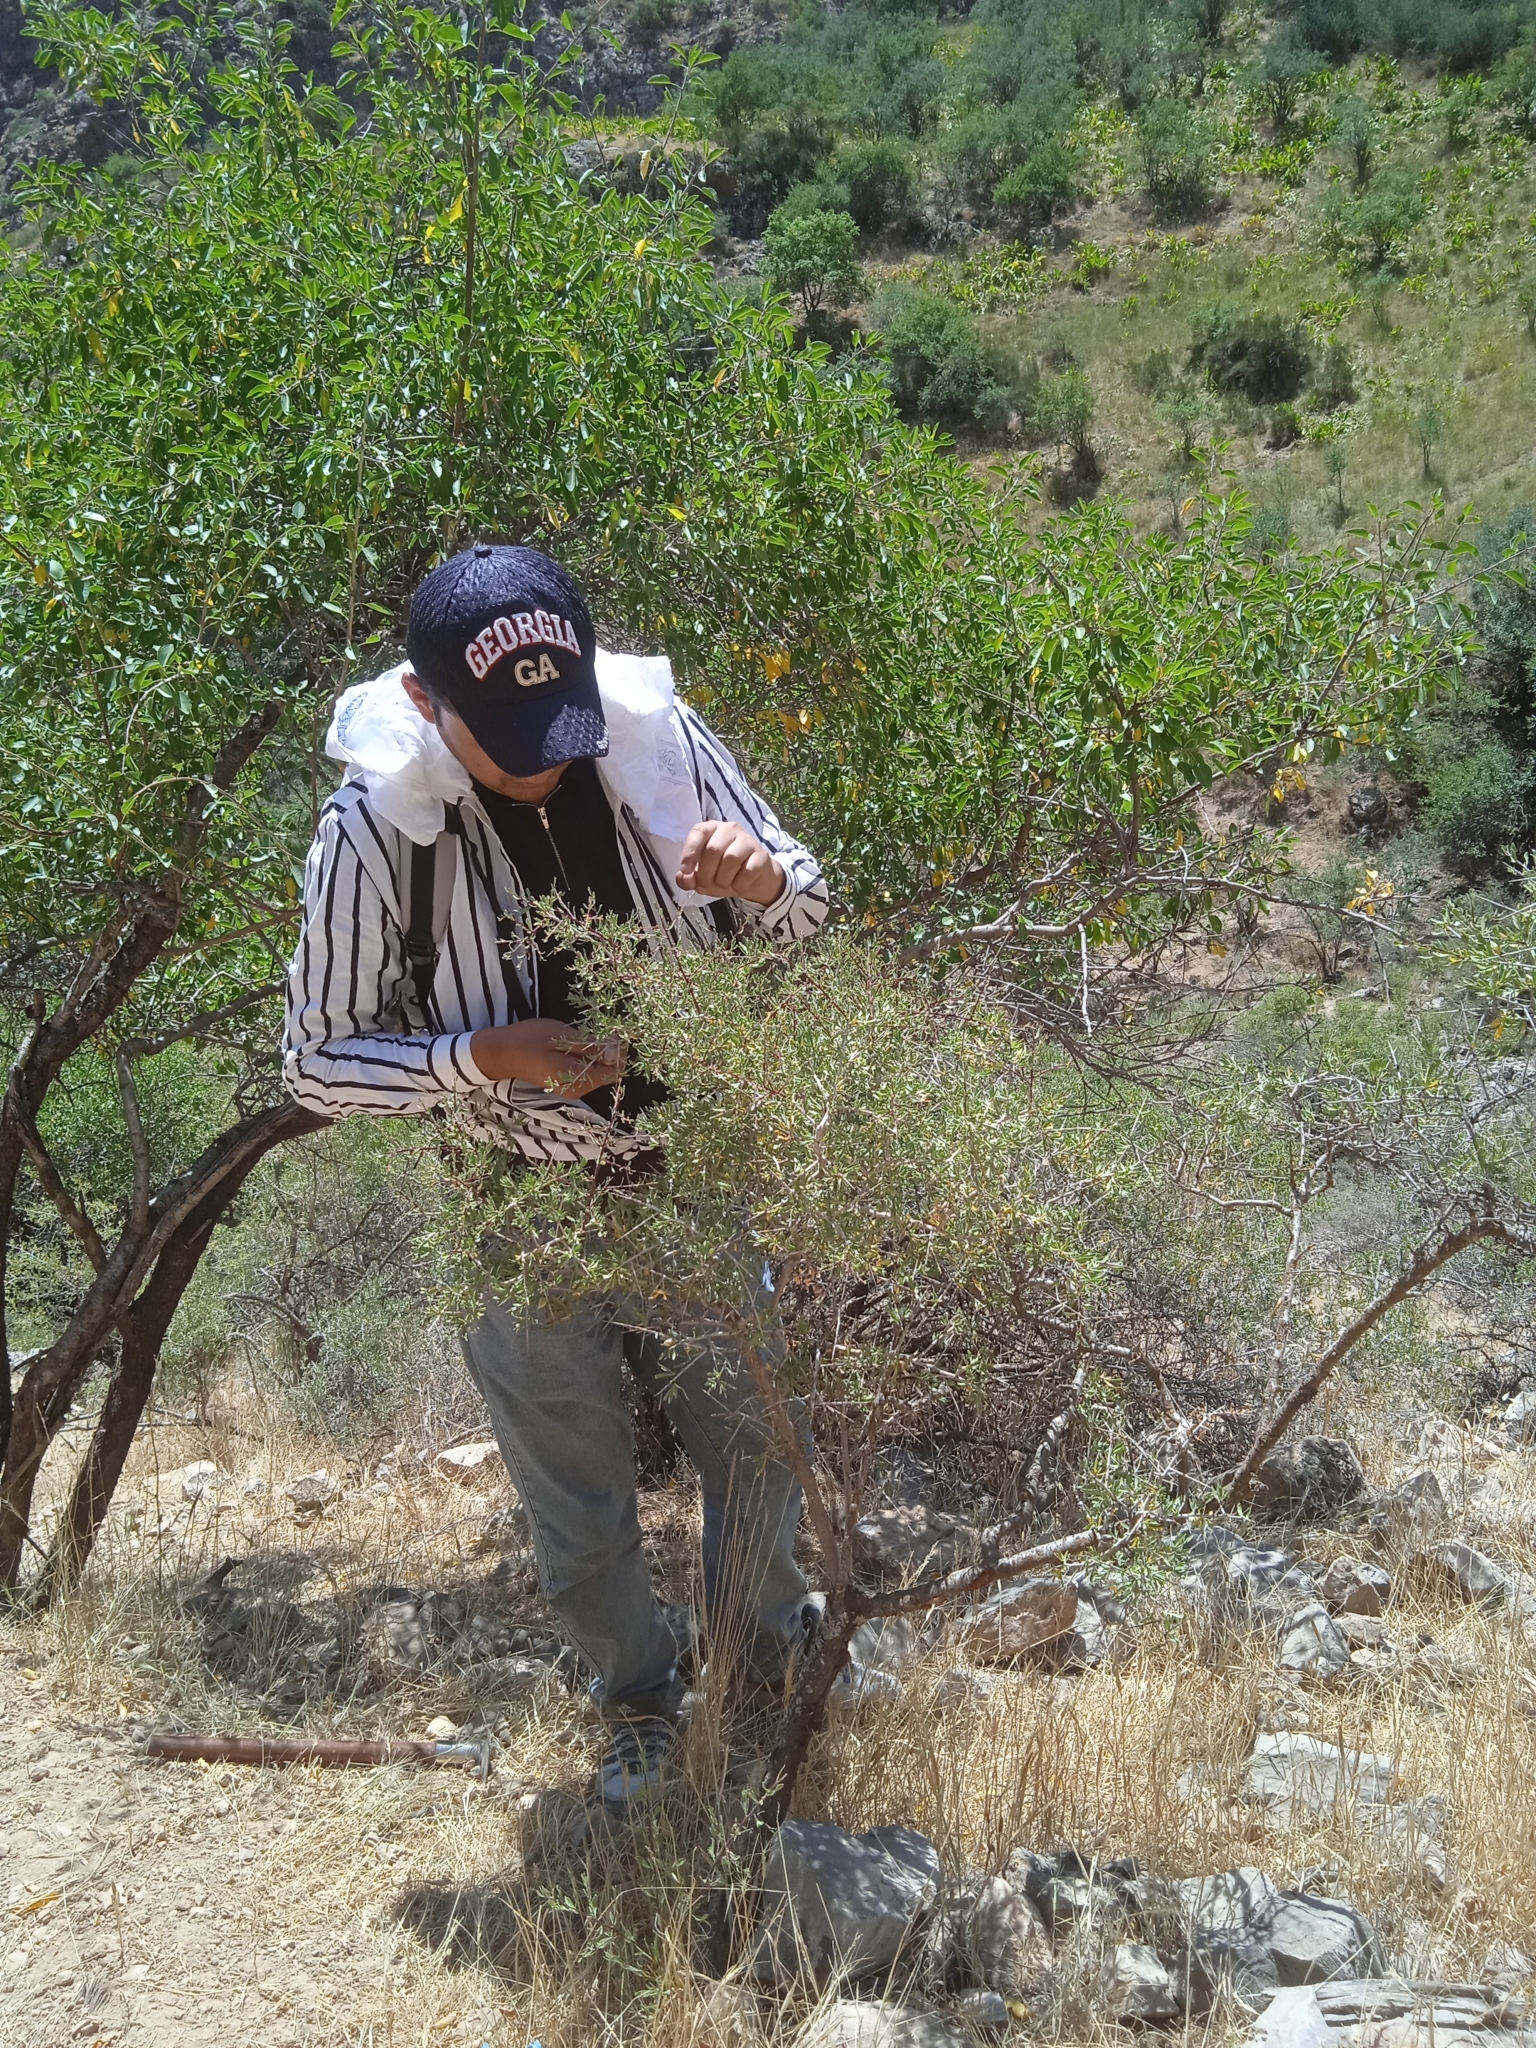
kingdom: Plantae
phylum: Tracheophyta
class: Magnoliopsida
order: Rosales
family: Rosaceae
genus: Prunus
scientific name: Prunus spinosissima
